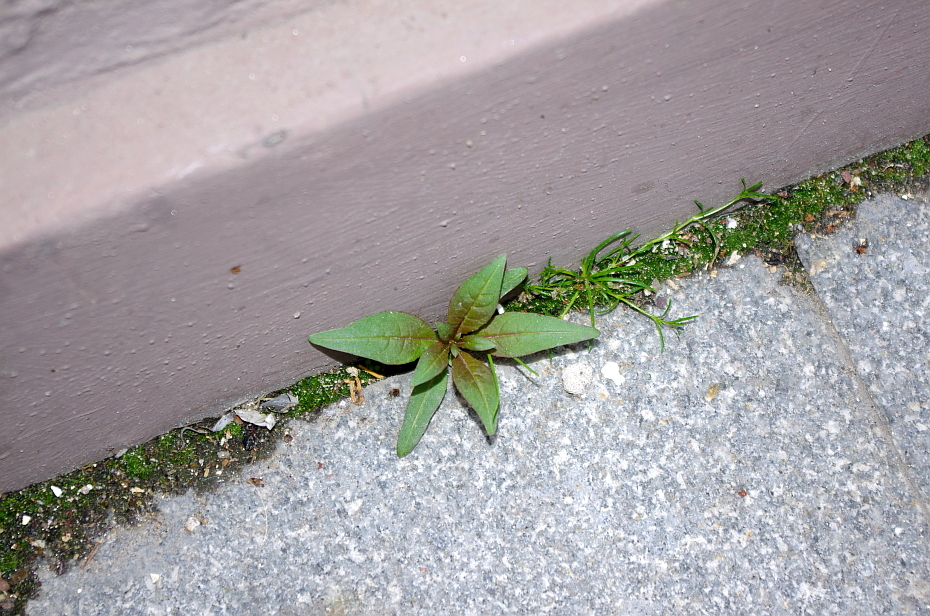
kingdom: Plantae
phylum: Tracheophyta
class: Magnoliopsida
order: Caryophyllales
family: Caryophyllaceae
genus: Sagina
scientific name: Sagina procumbens
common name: Procumbent pearlwort
